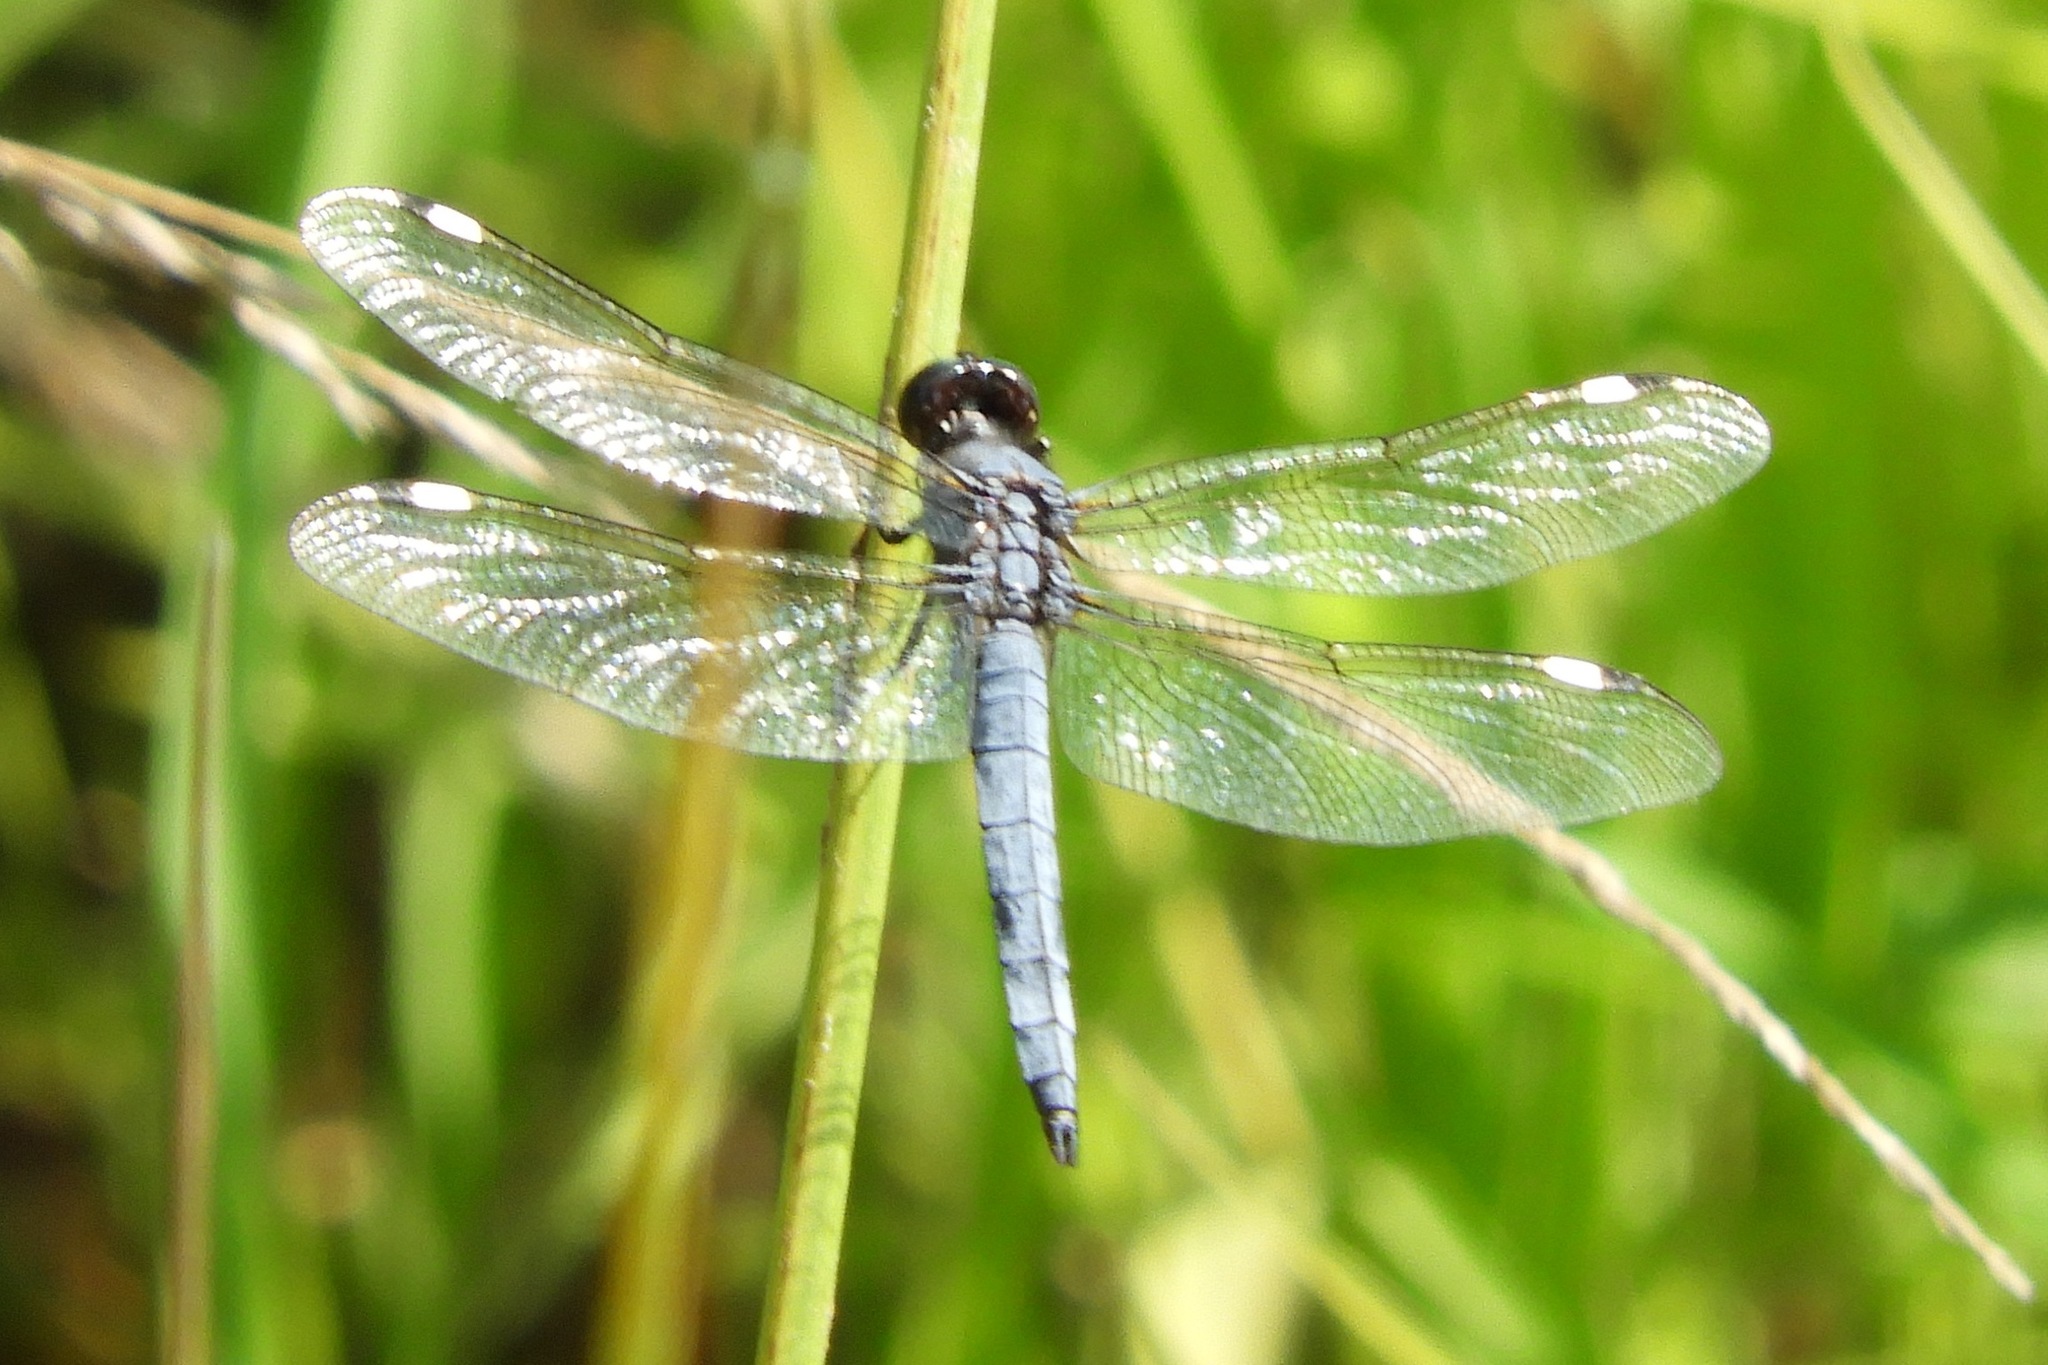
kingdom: Animalia
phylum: Arthropoda
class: Insecta
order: Odonata
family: Libellulidae
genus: Libellula
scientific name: Libellula cyanea
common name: Spangled skimmer
